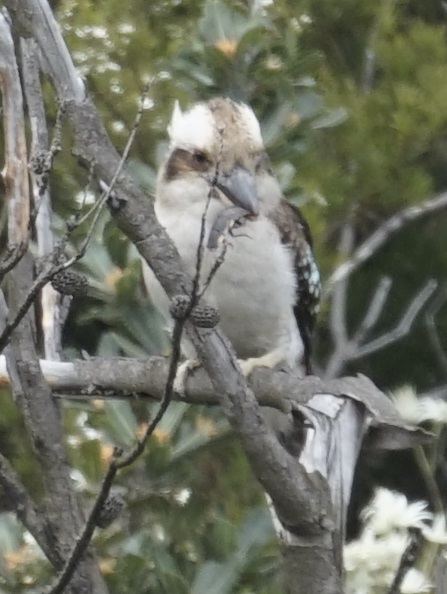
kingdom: Animalia
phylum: Chordata
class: Aves
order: Coraciiformes
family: Alcedinidae
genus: Dacelo
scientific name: Dacelo novaeguineae
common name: Laughing kookaburra
